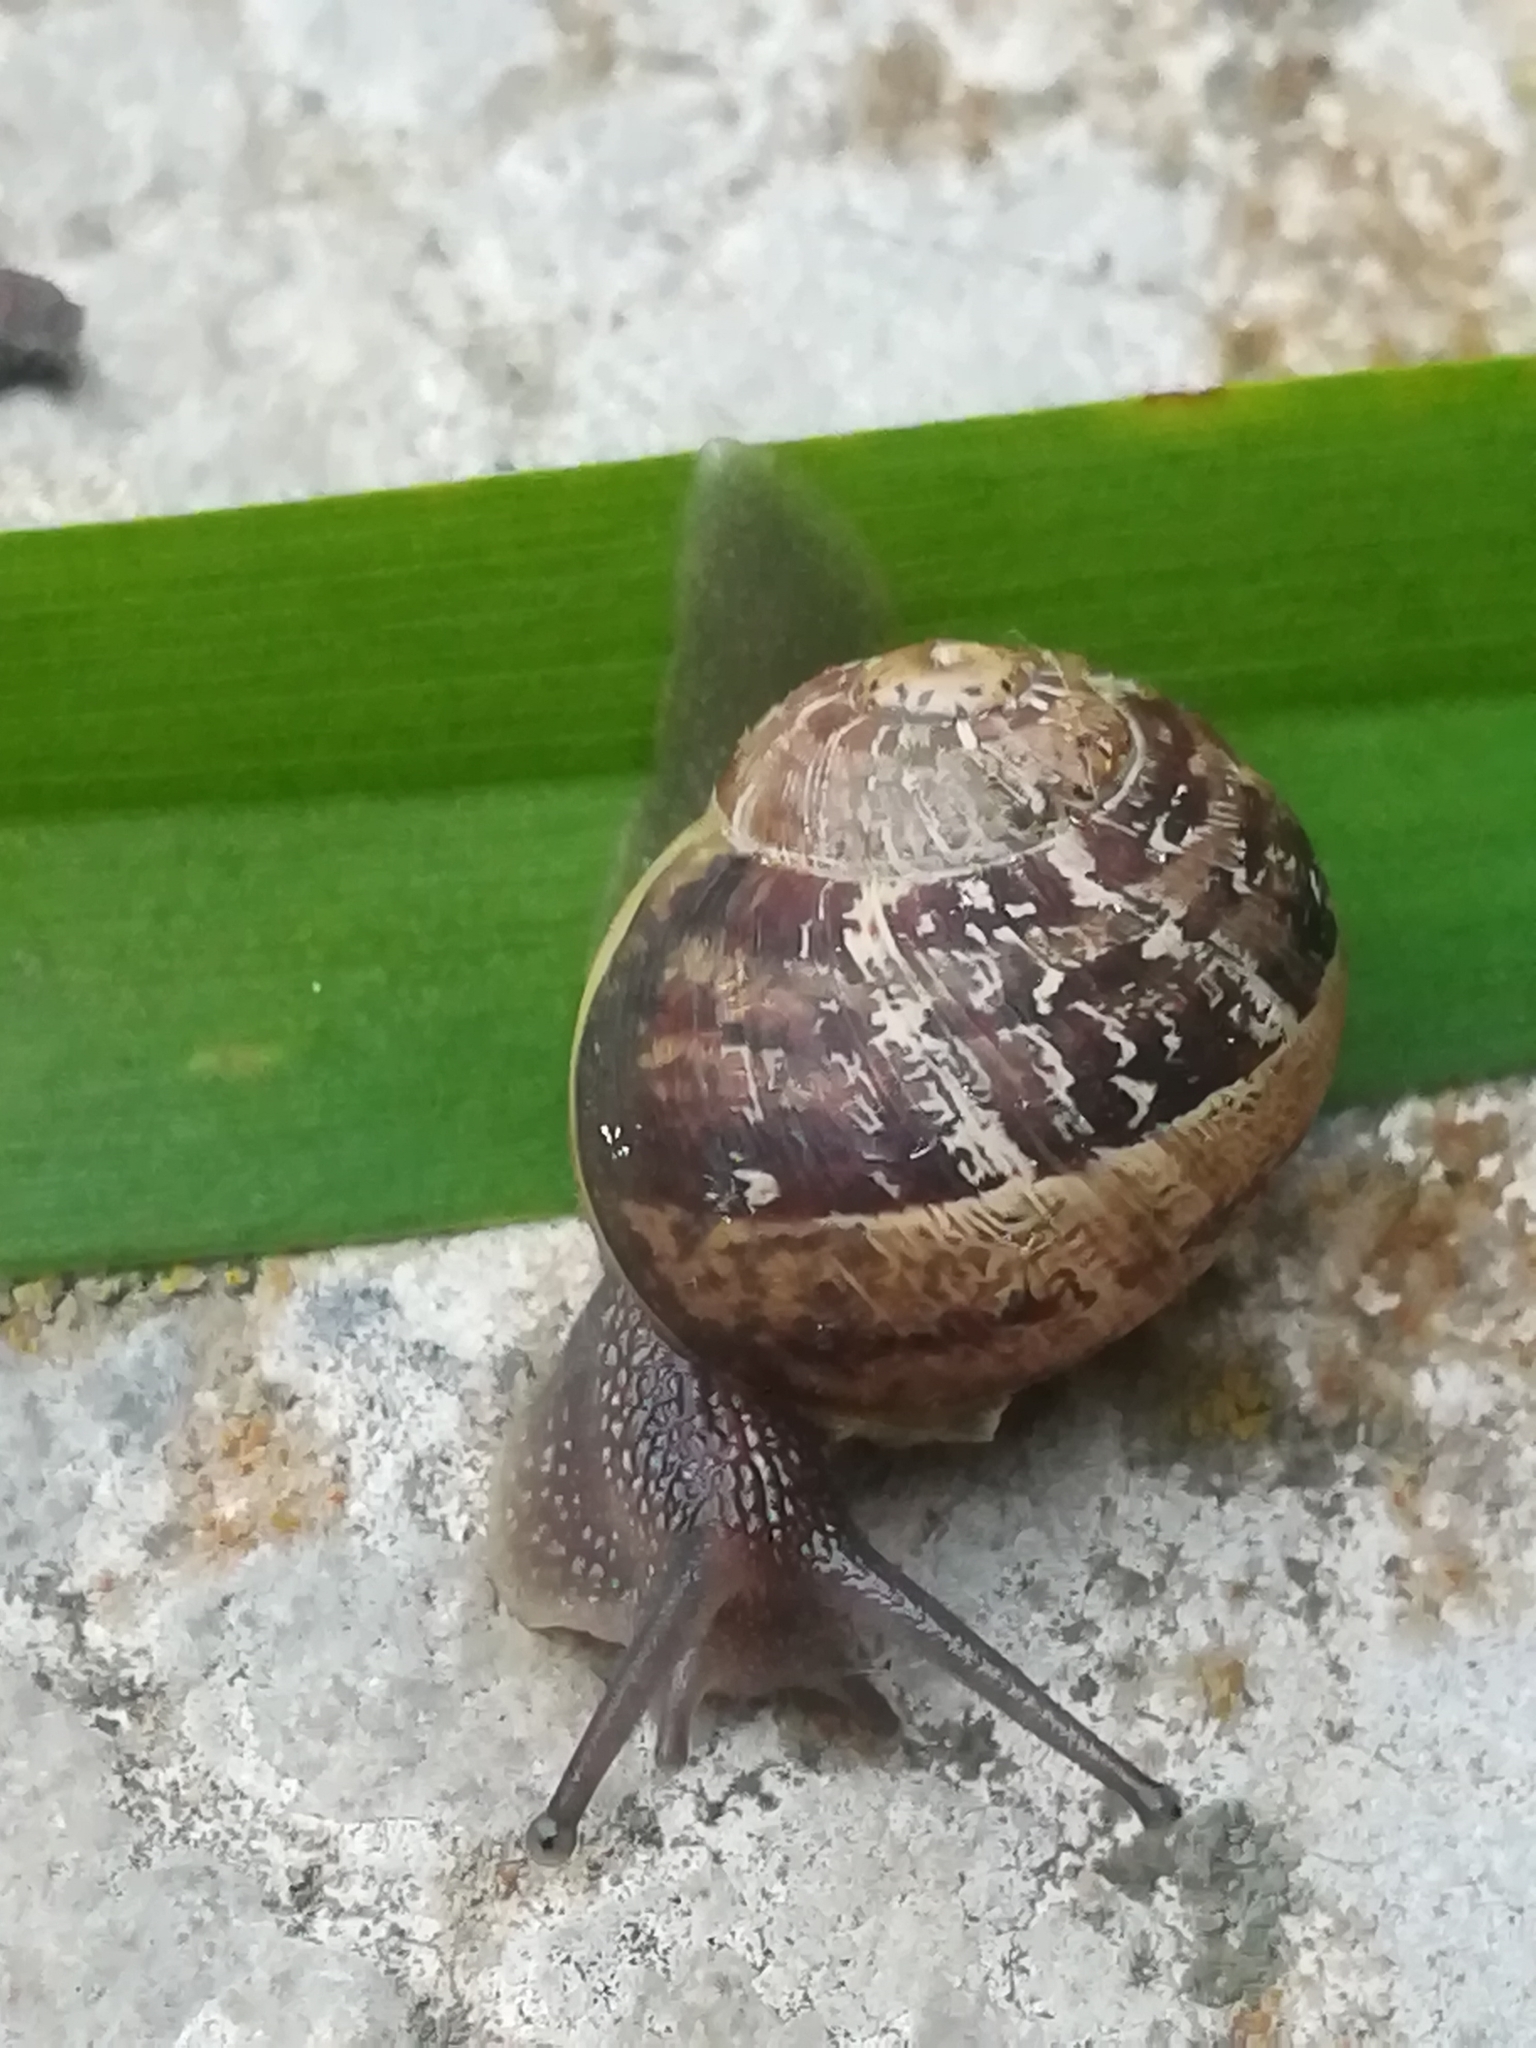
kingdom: Animalia
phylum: Mollusca
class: Gastropoda
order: Stylommatophora
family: Helicidae
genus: Cornu
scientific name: Cornu aspersum
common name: Brown garden snail
